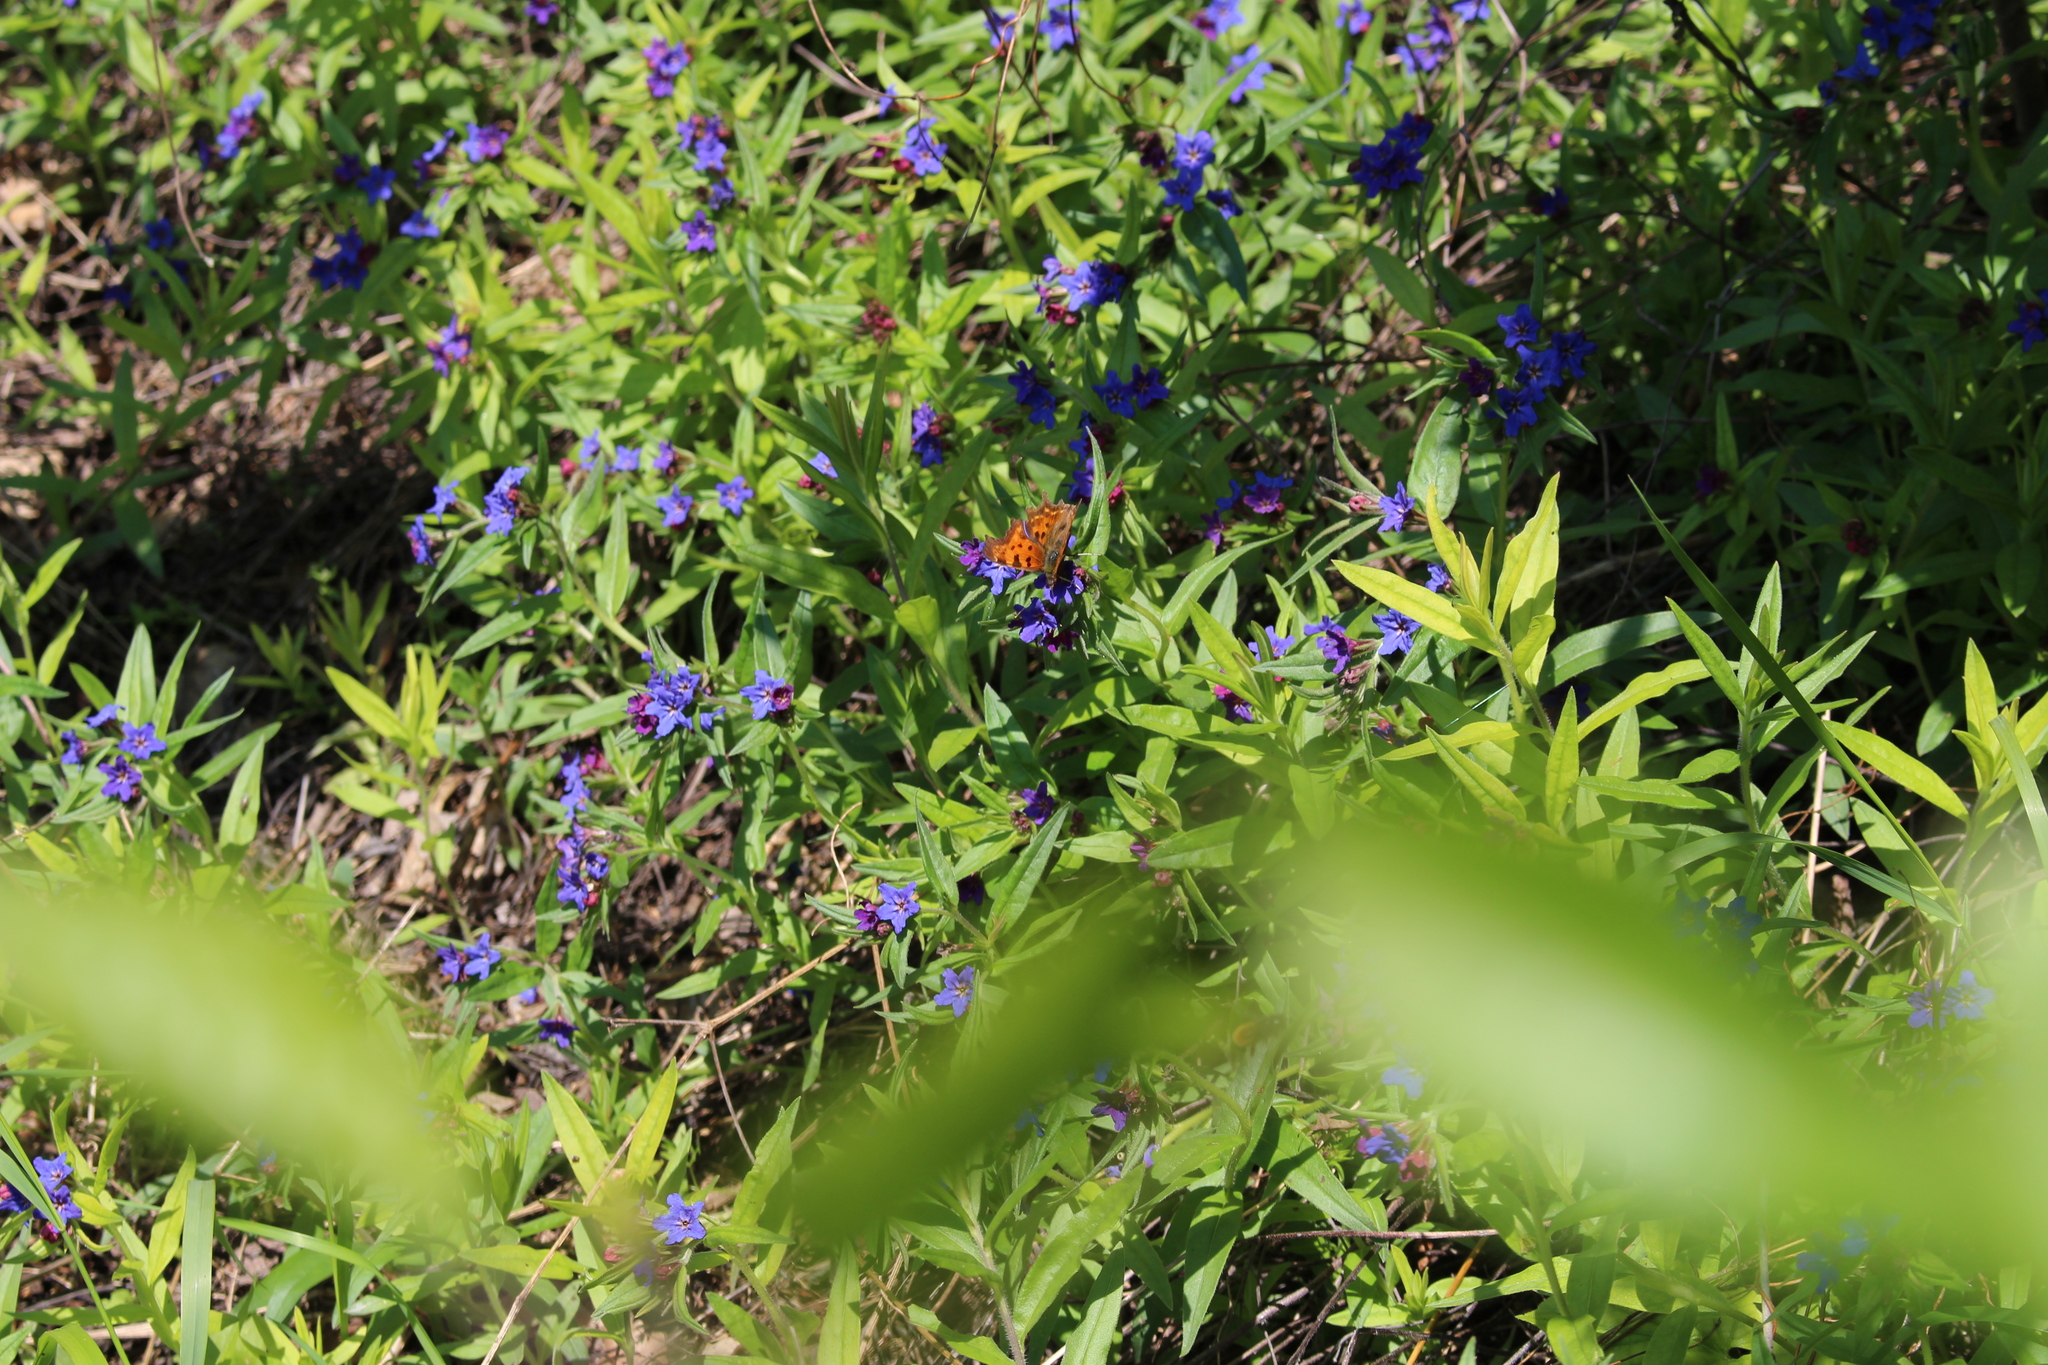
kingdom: Plantae
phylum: Tracheophyta
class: Magnoliopsida
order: Boraginales
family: Boraginaceae
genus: Aegonychon
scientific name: Aegonychon purpurocaeruleum
